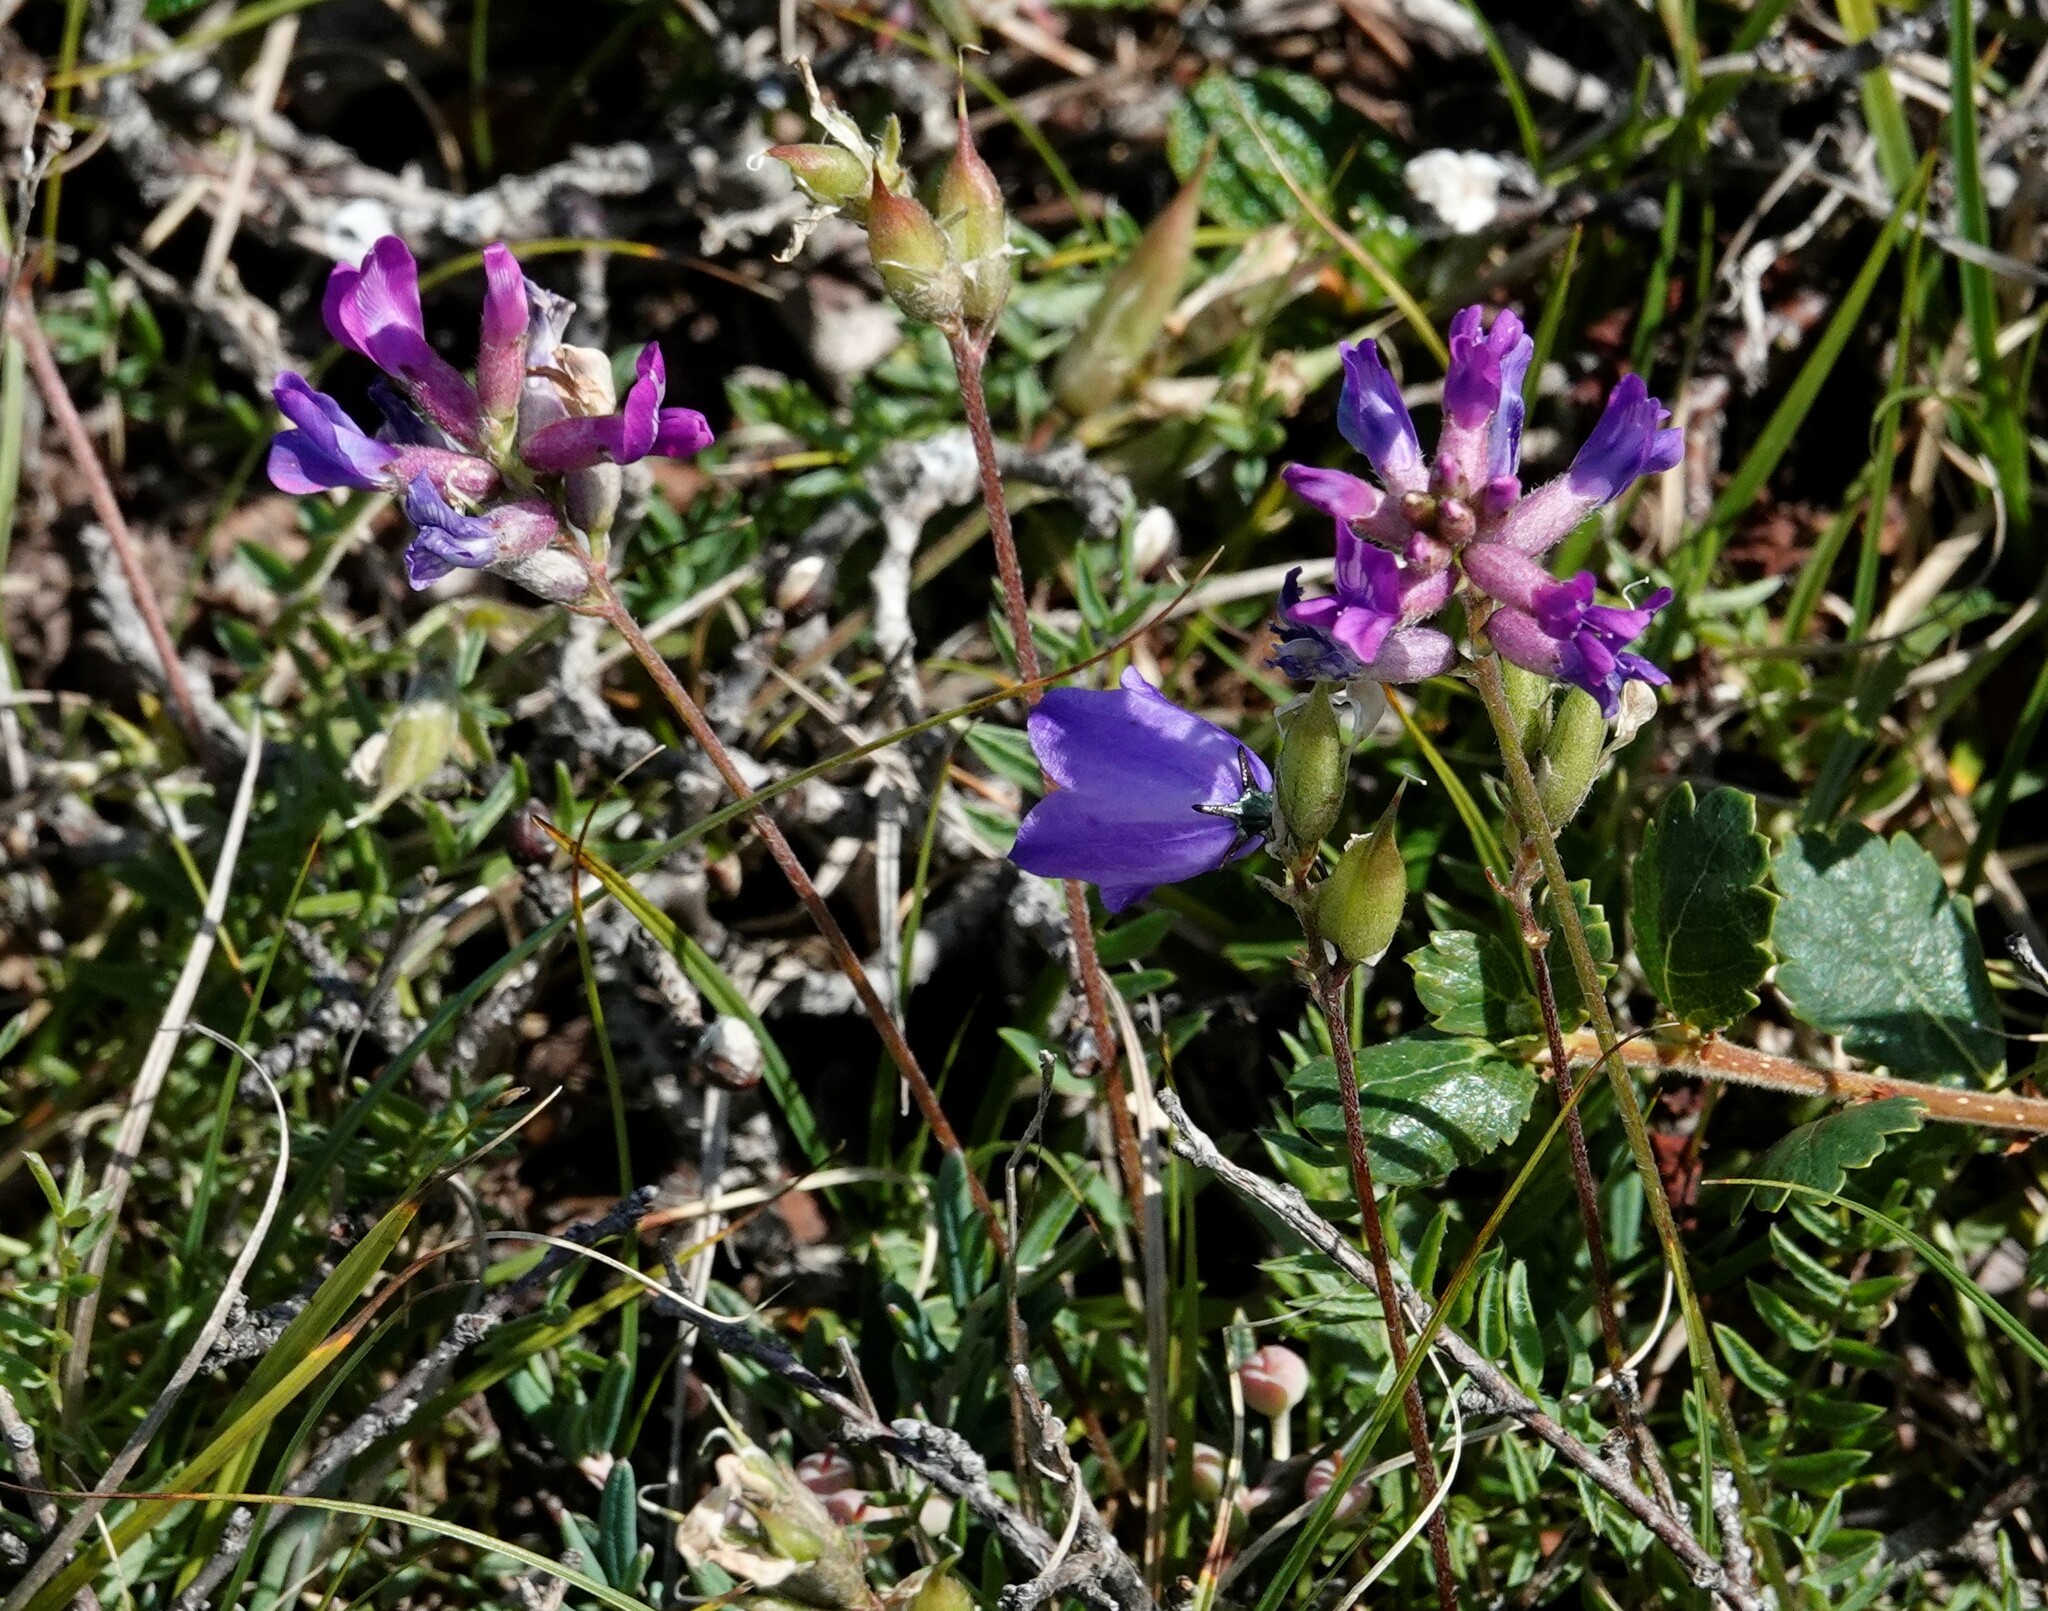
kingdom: Plantae
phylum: Tracheophyta
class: Magnoliopsida
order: Fabales
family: Fabaceae
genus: Oxytropis
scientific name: Oxytropis campestris
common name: Field locoweed
